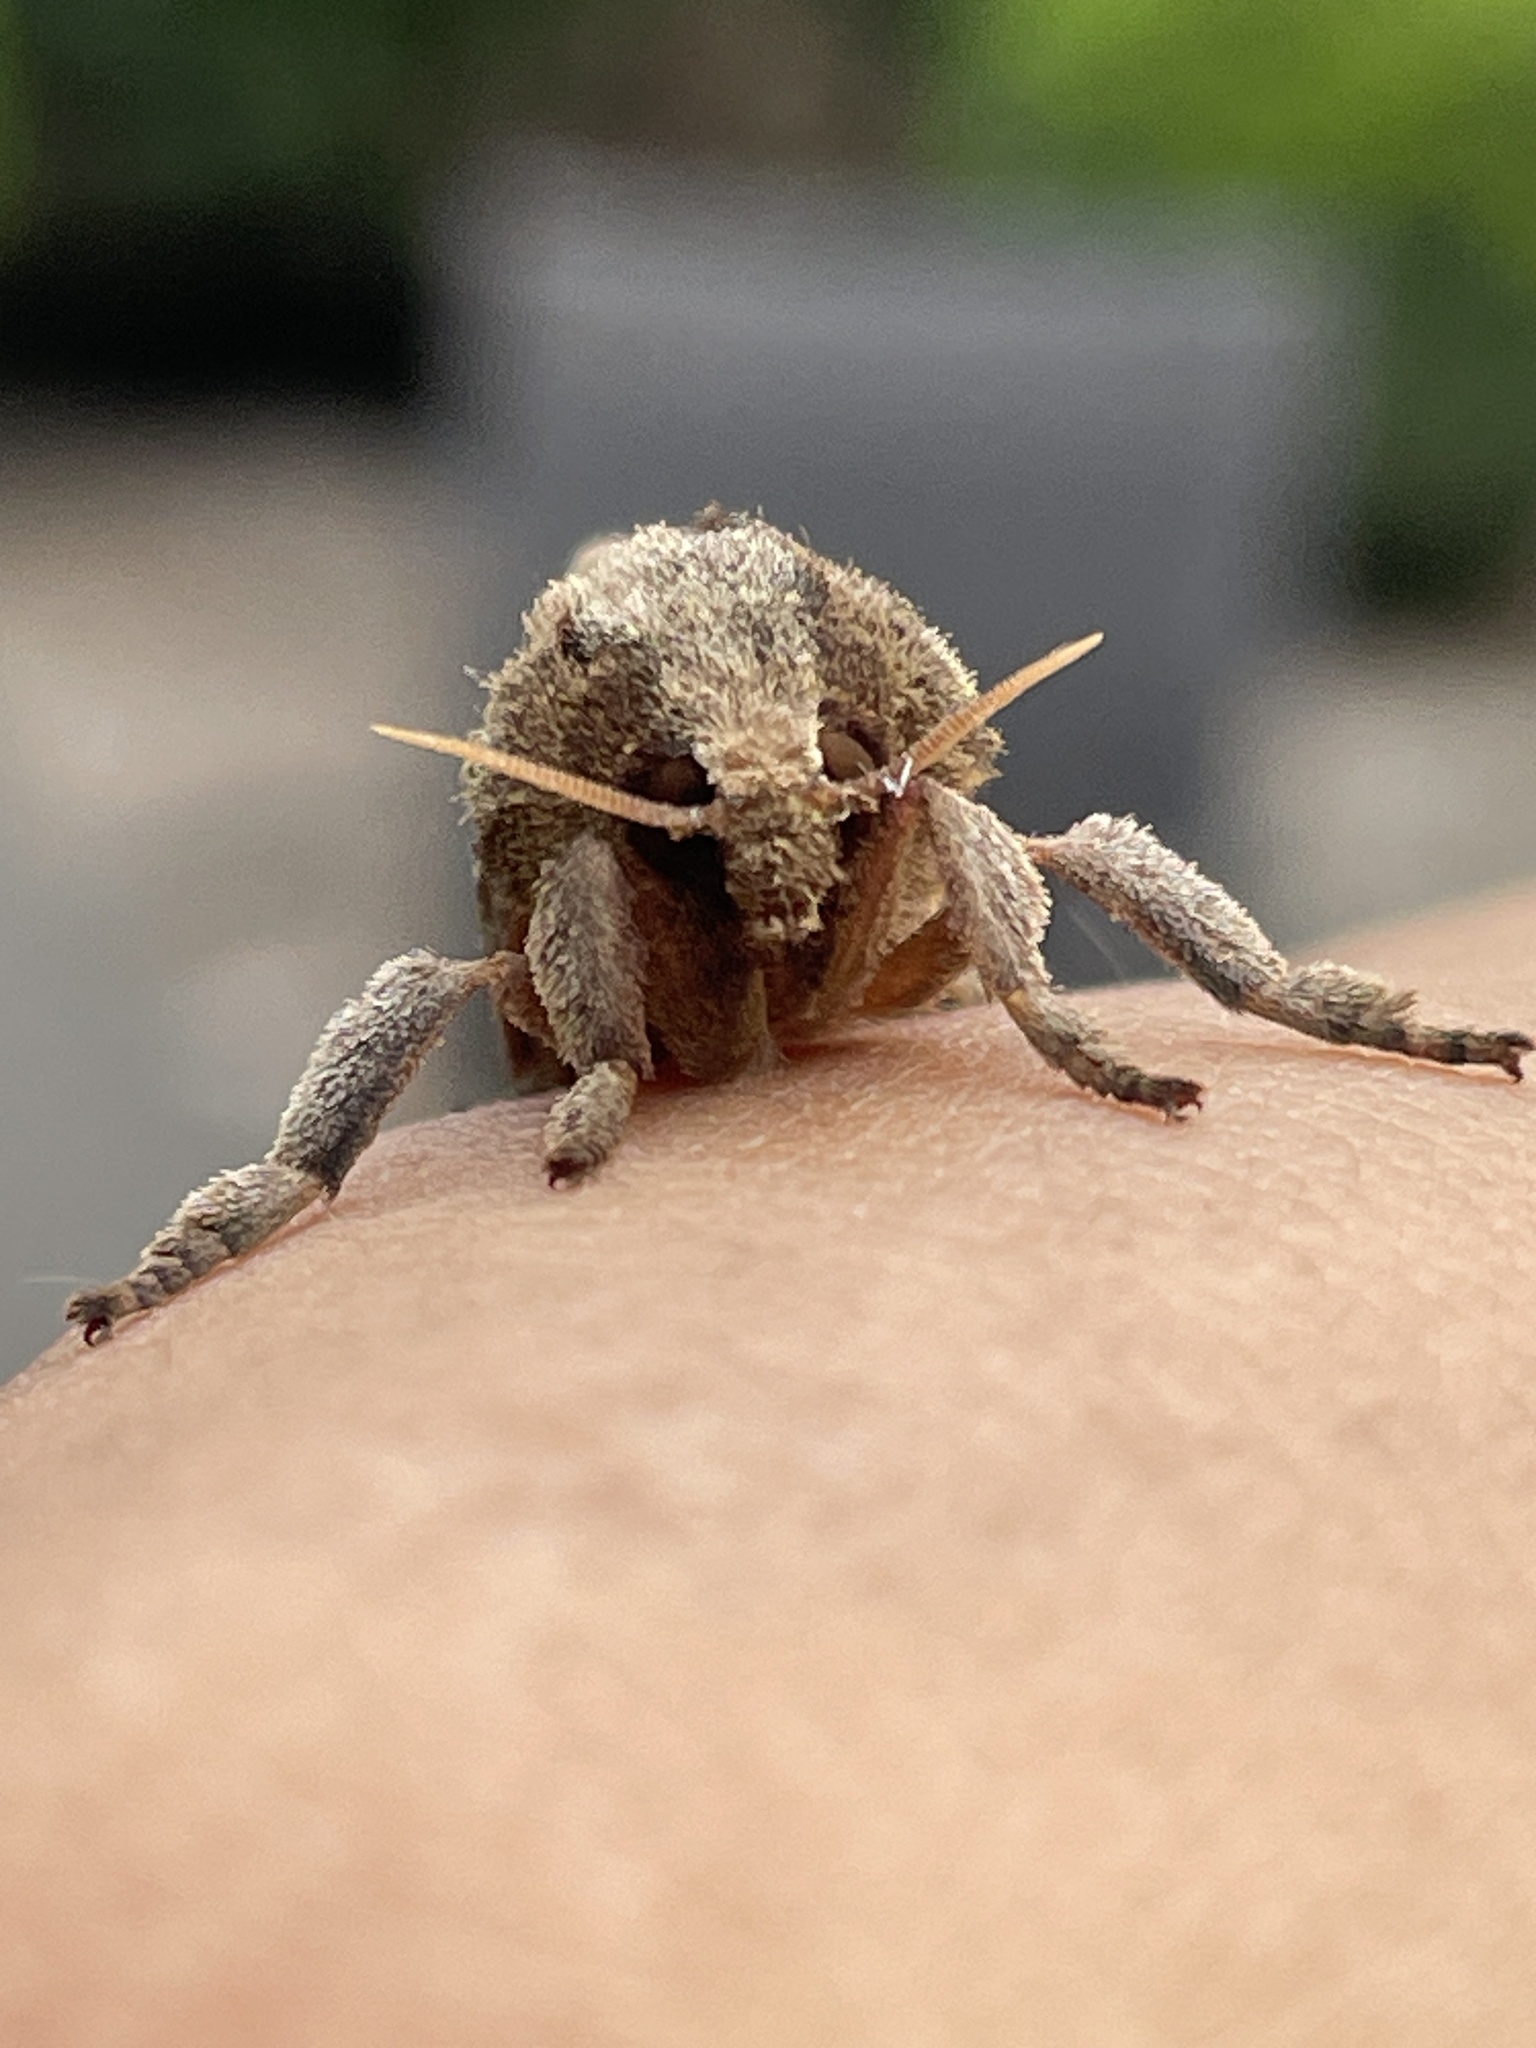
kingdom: Animalia
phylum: Arthropoda
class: Insecta
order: Lepidoptera
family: Hepialidae
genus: Elhamma
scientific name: Elhamma australasiae
